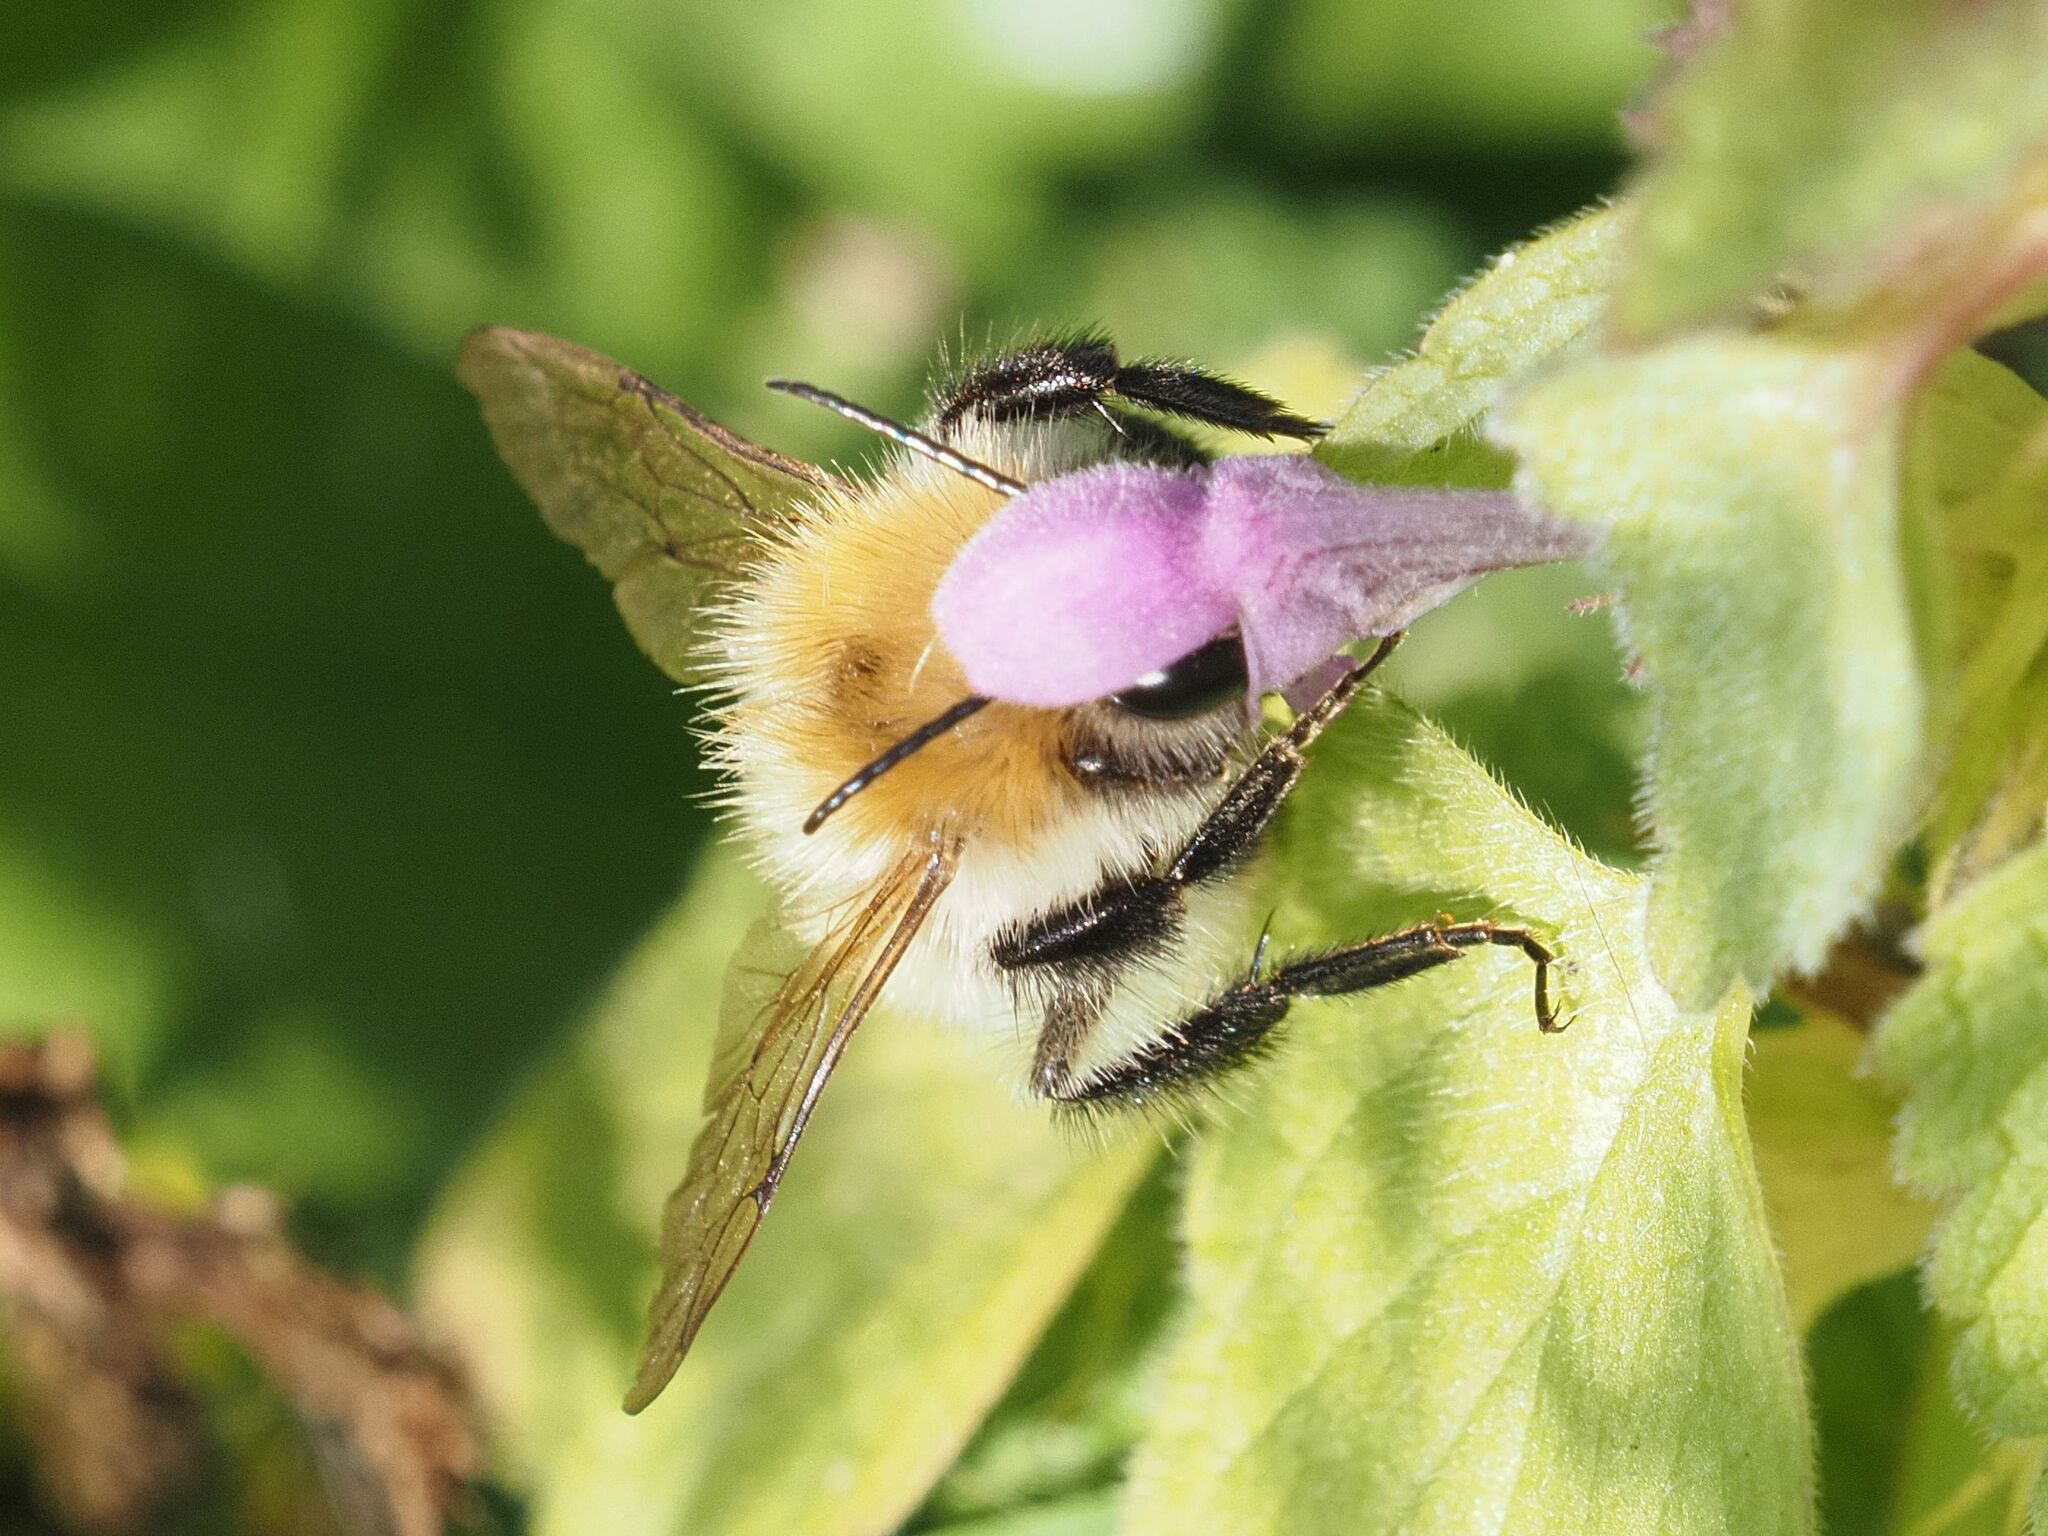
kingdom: Animalia
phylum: Arthropoda
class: Insecta
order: Hymenoptera
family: Apidae
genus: Bombus
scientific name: Bombus pascuorum
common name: Common carder bee
